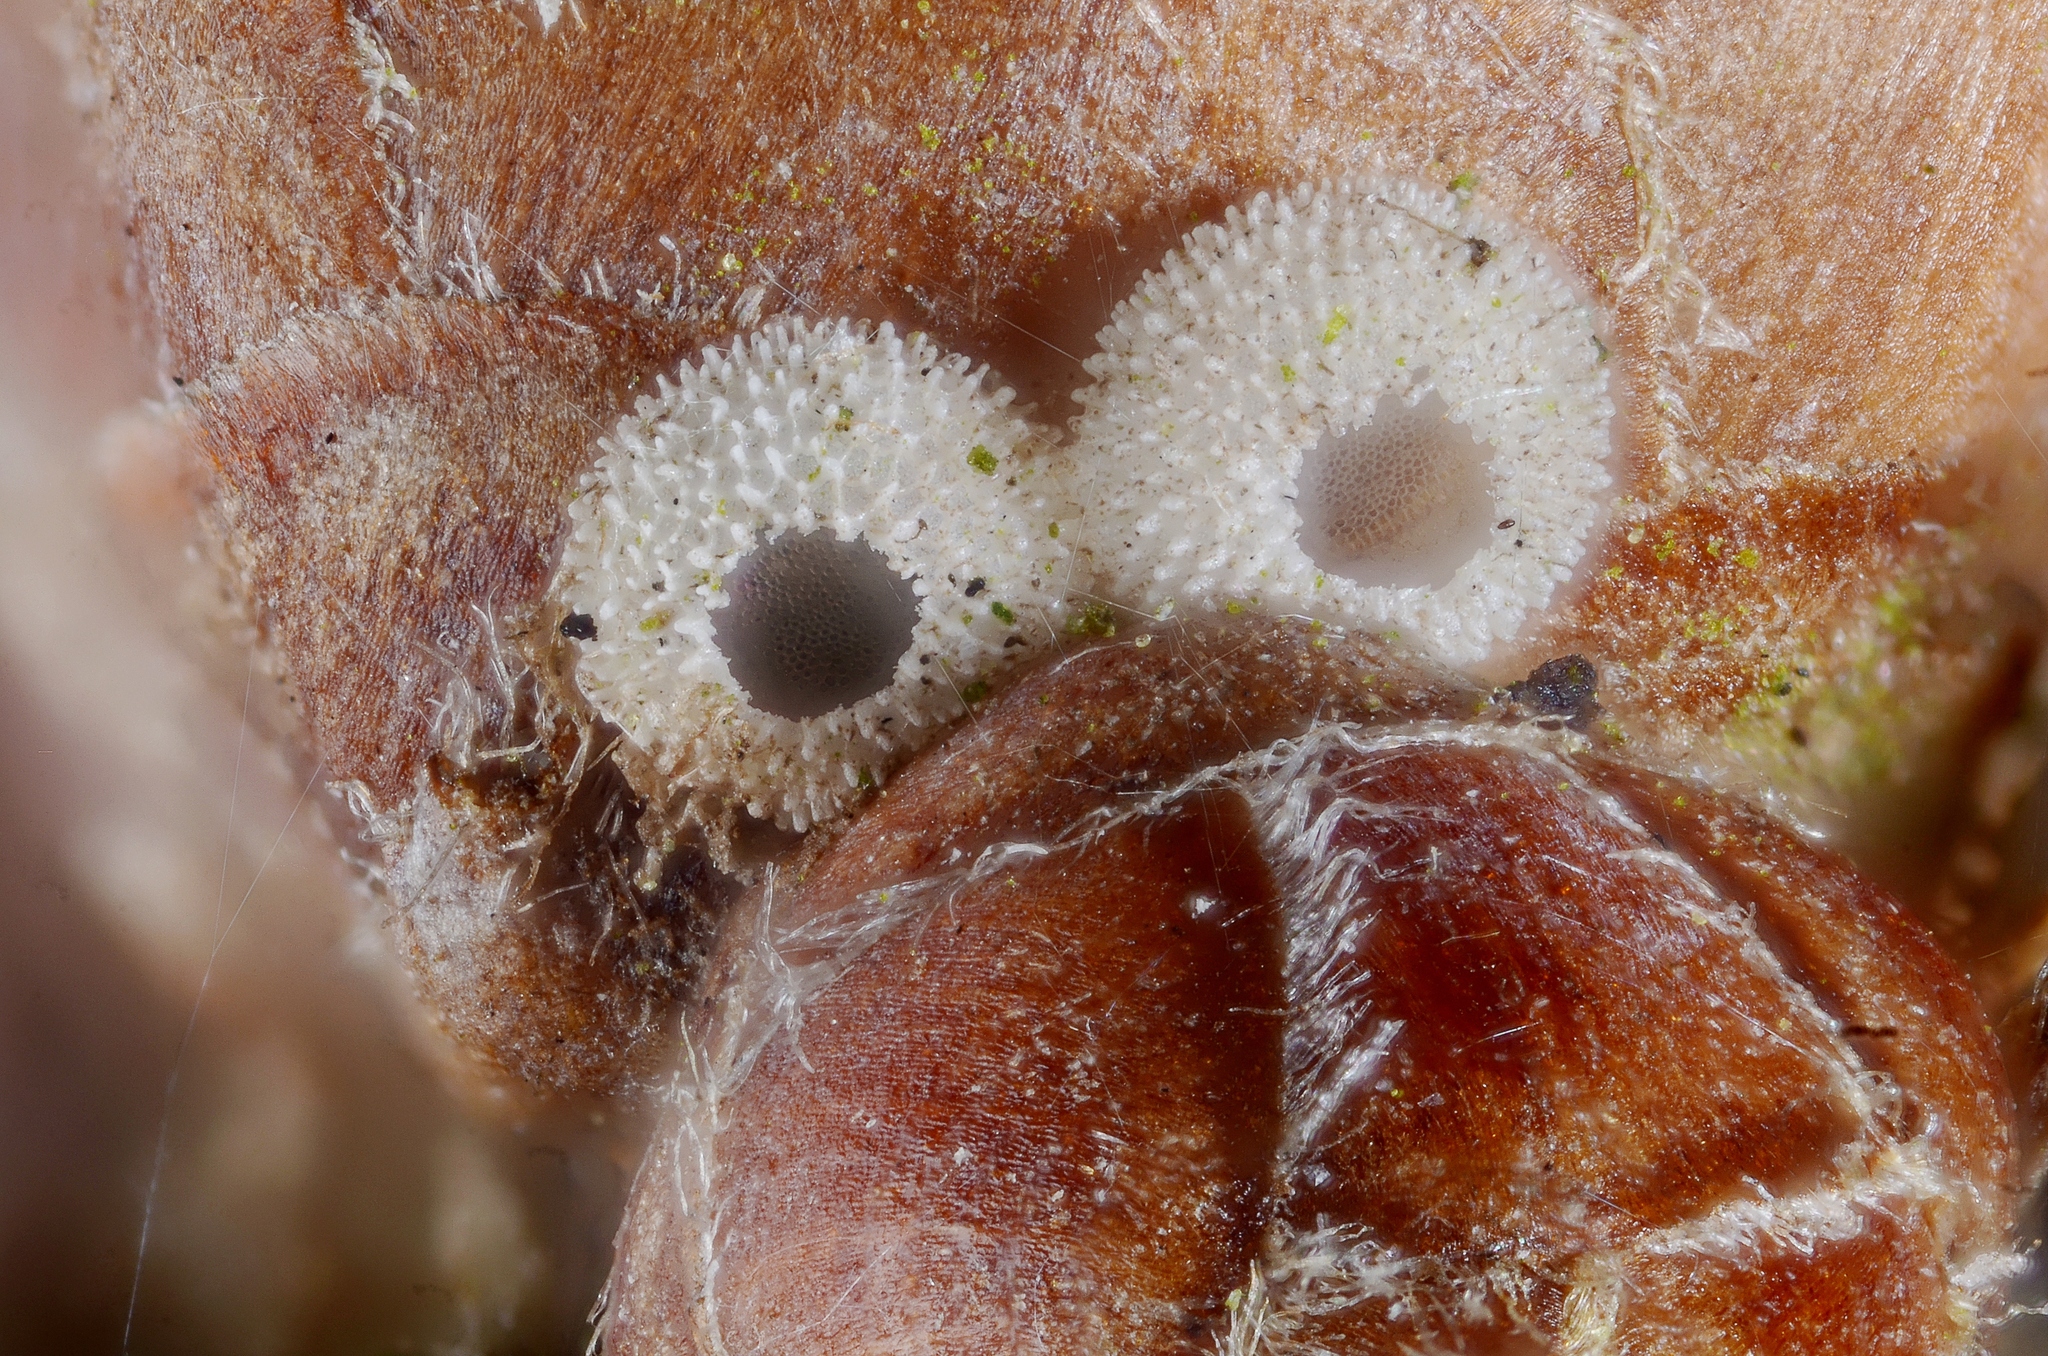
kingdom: Animalia
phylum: Arthropoda
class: Insecta
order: Lepidoptera
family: Lycaenidae
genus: Quercusia
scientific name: Quercusia quercus
